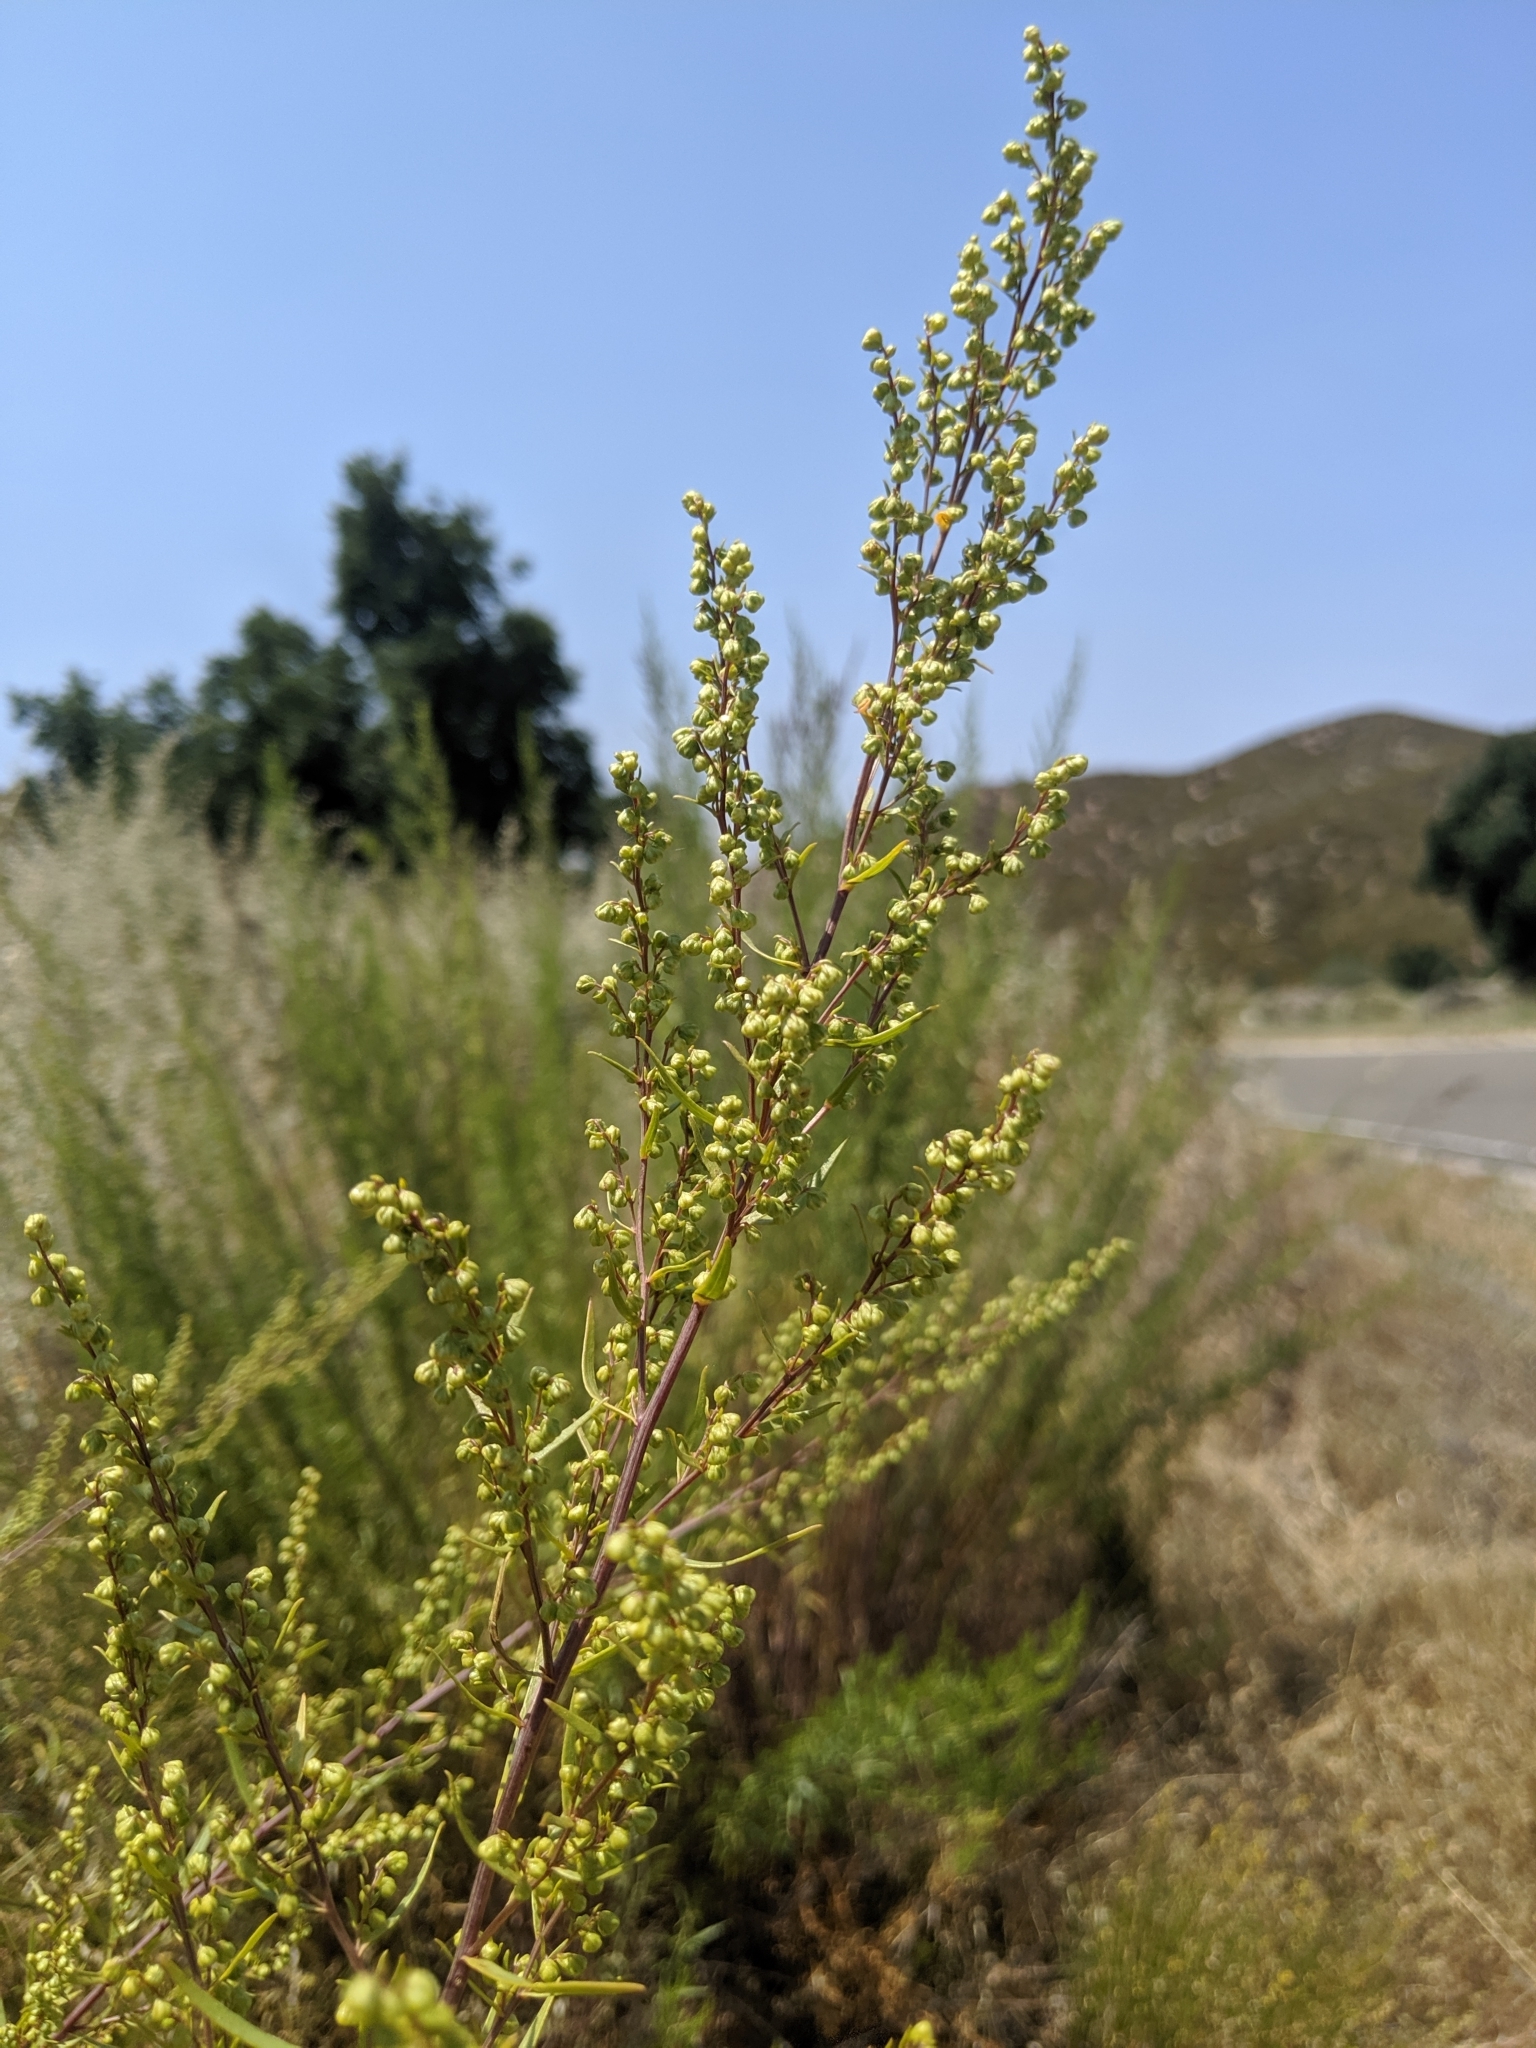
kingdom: Plantae
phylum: Tracheophyta
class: Magnoliopsida
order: Asterales
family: Asteraceae
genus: Artemisia
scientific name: Artemisia dracunculus
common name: Tarragon
